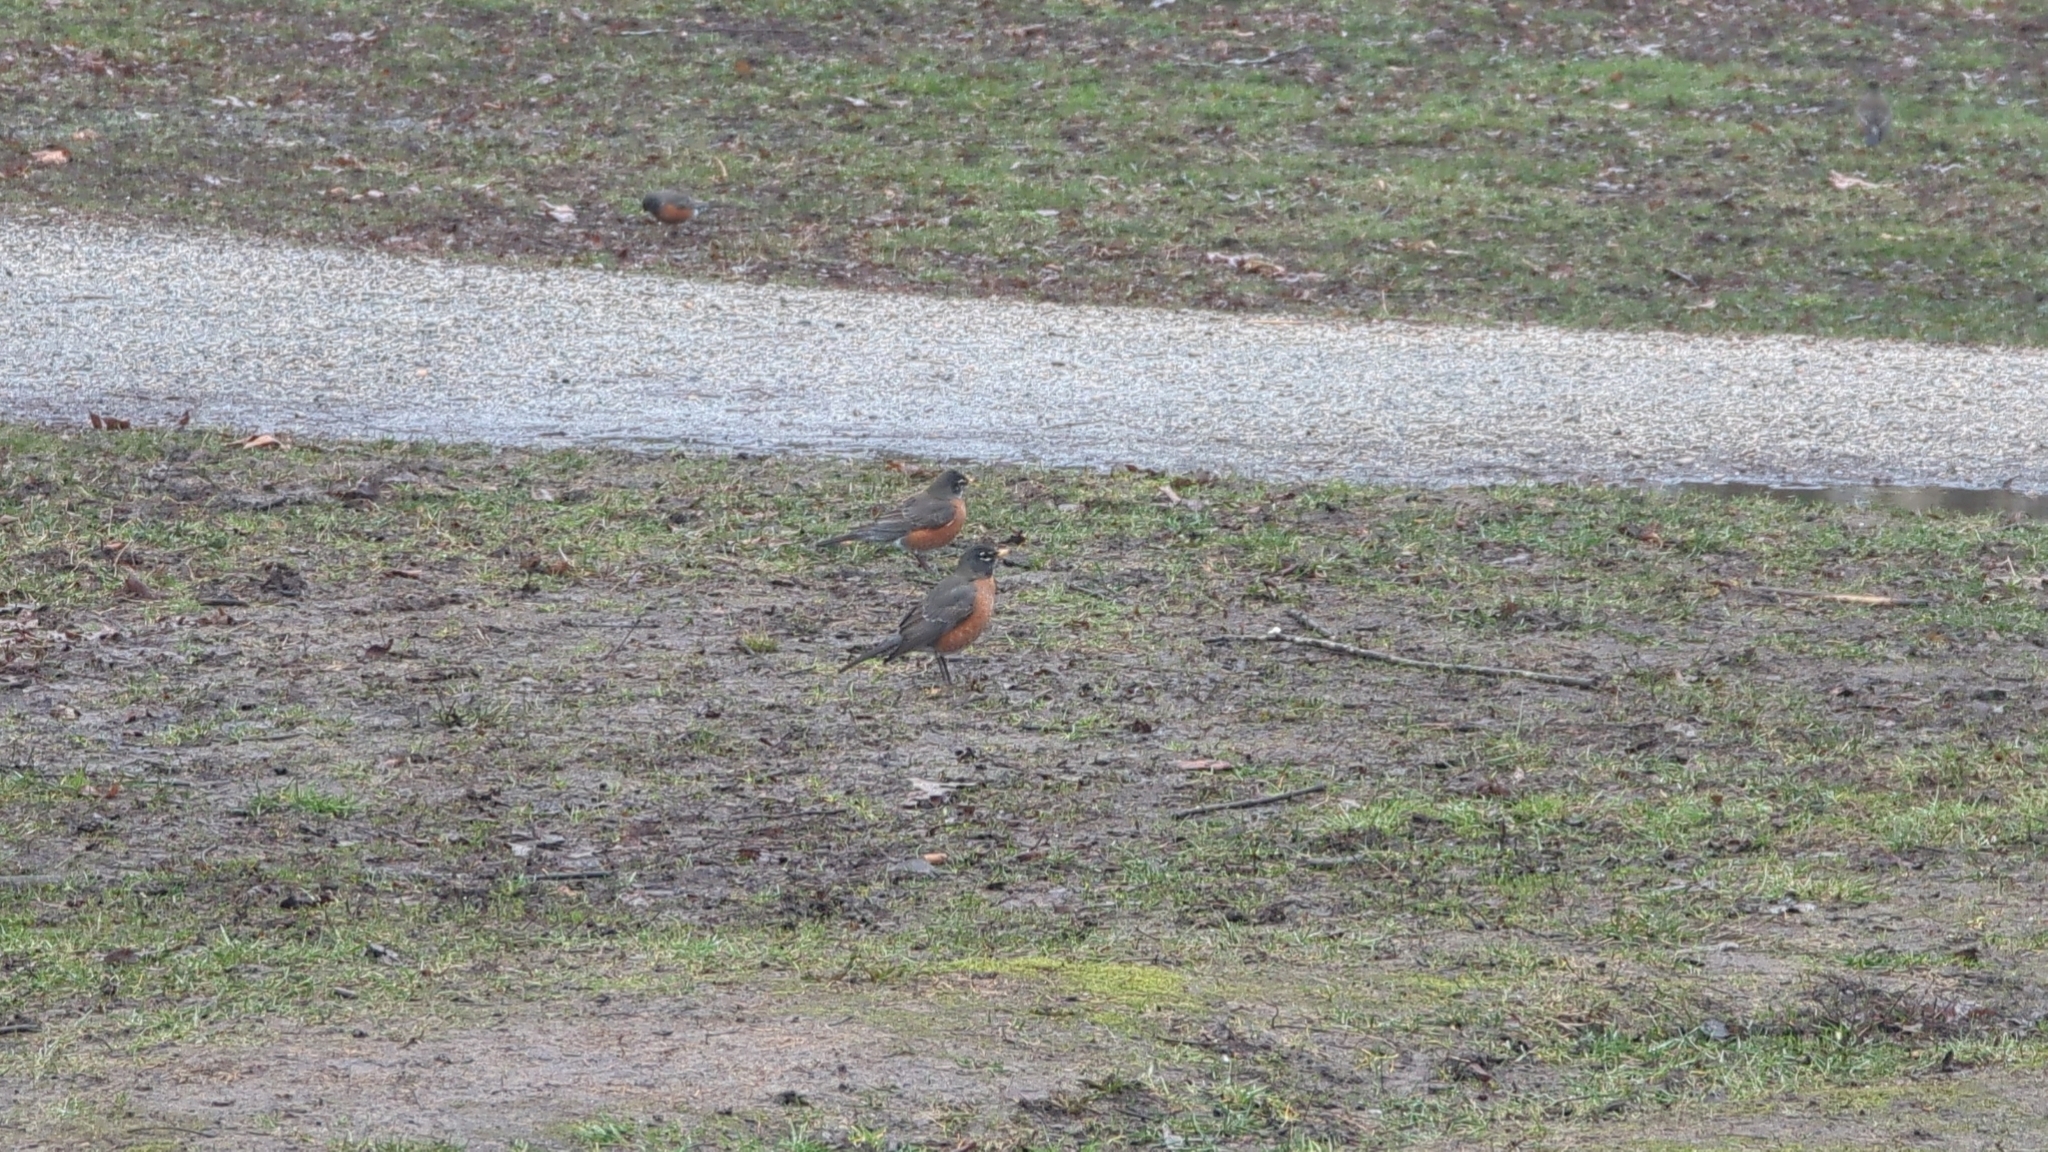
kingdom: Animalia
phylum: Chordata
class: Aves
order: Passeriformes
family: Turdidae
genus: Turdus
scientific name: Turdus migratorius
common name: American robin
